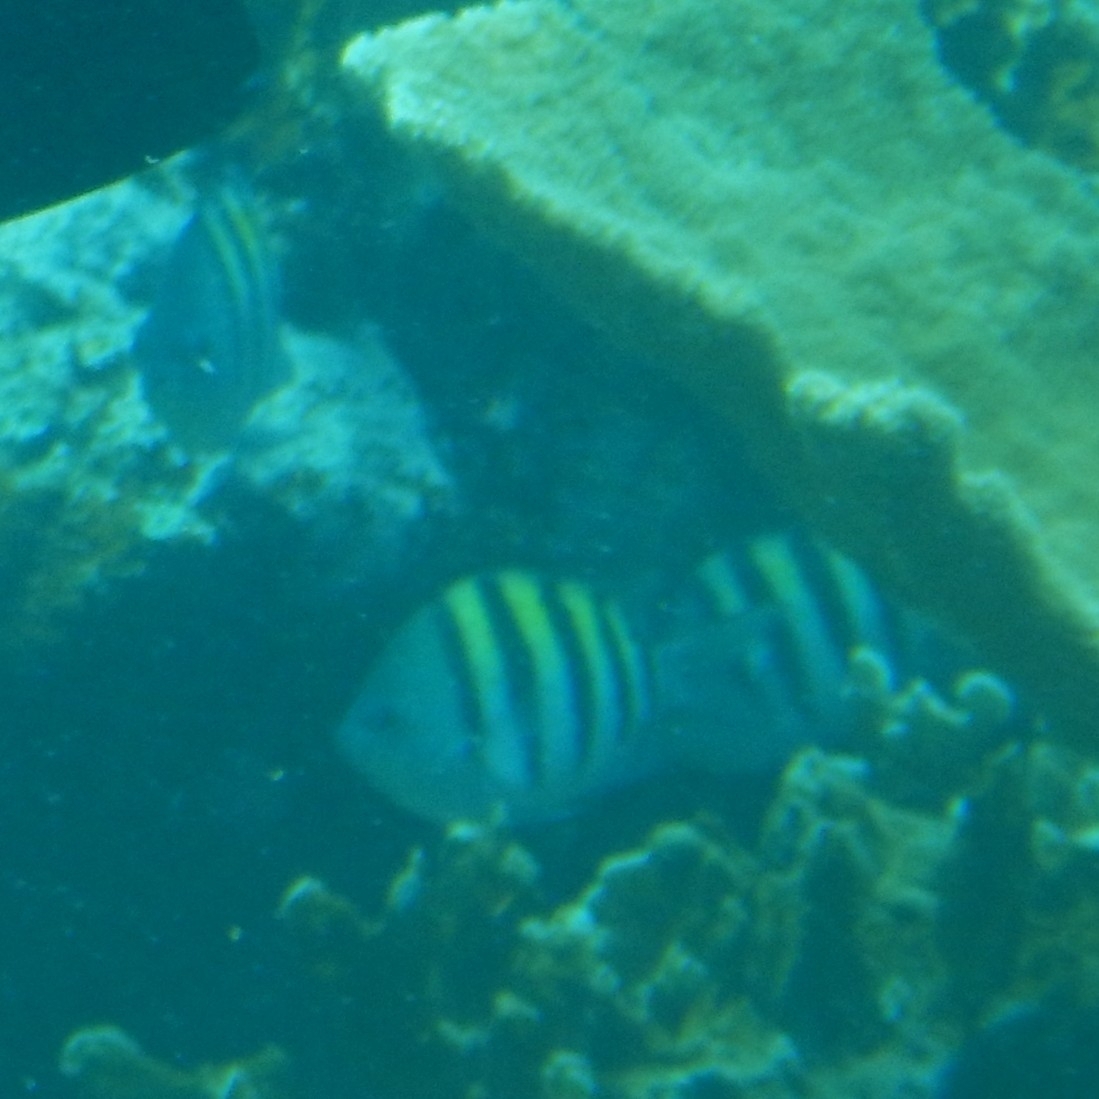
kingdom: Animalia
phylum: Chordata
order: Perciformes
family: Pomacentridae
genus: Abudefduf
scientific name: Abudefduf saxatilis
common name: Sergeant major
